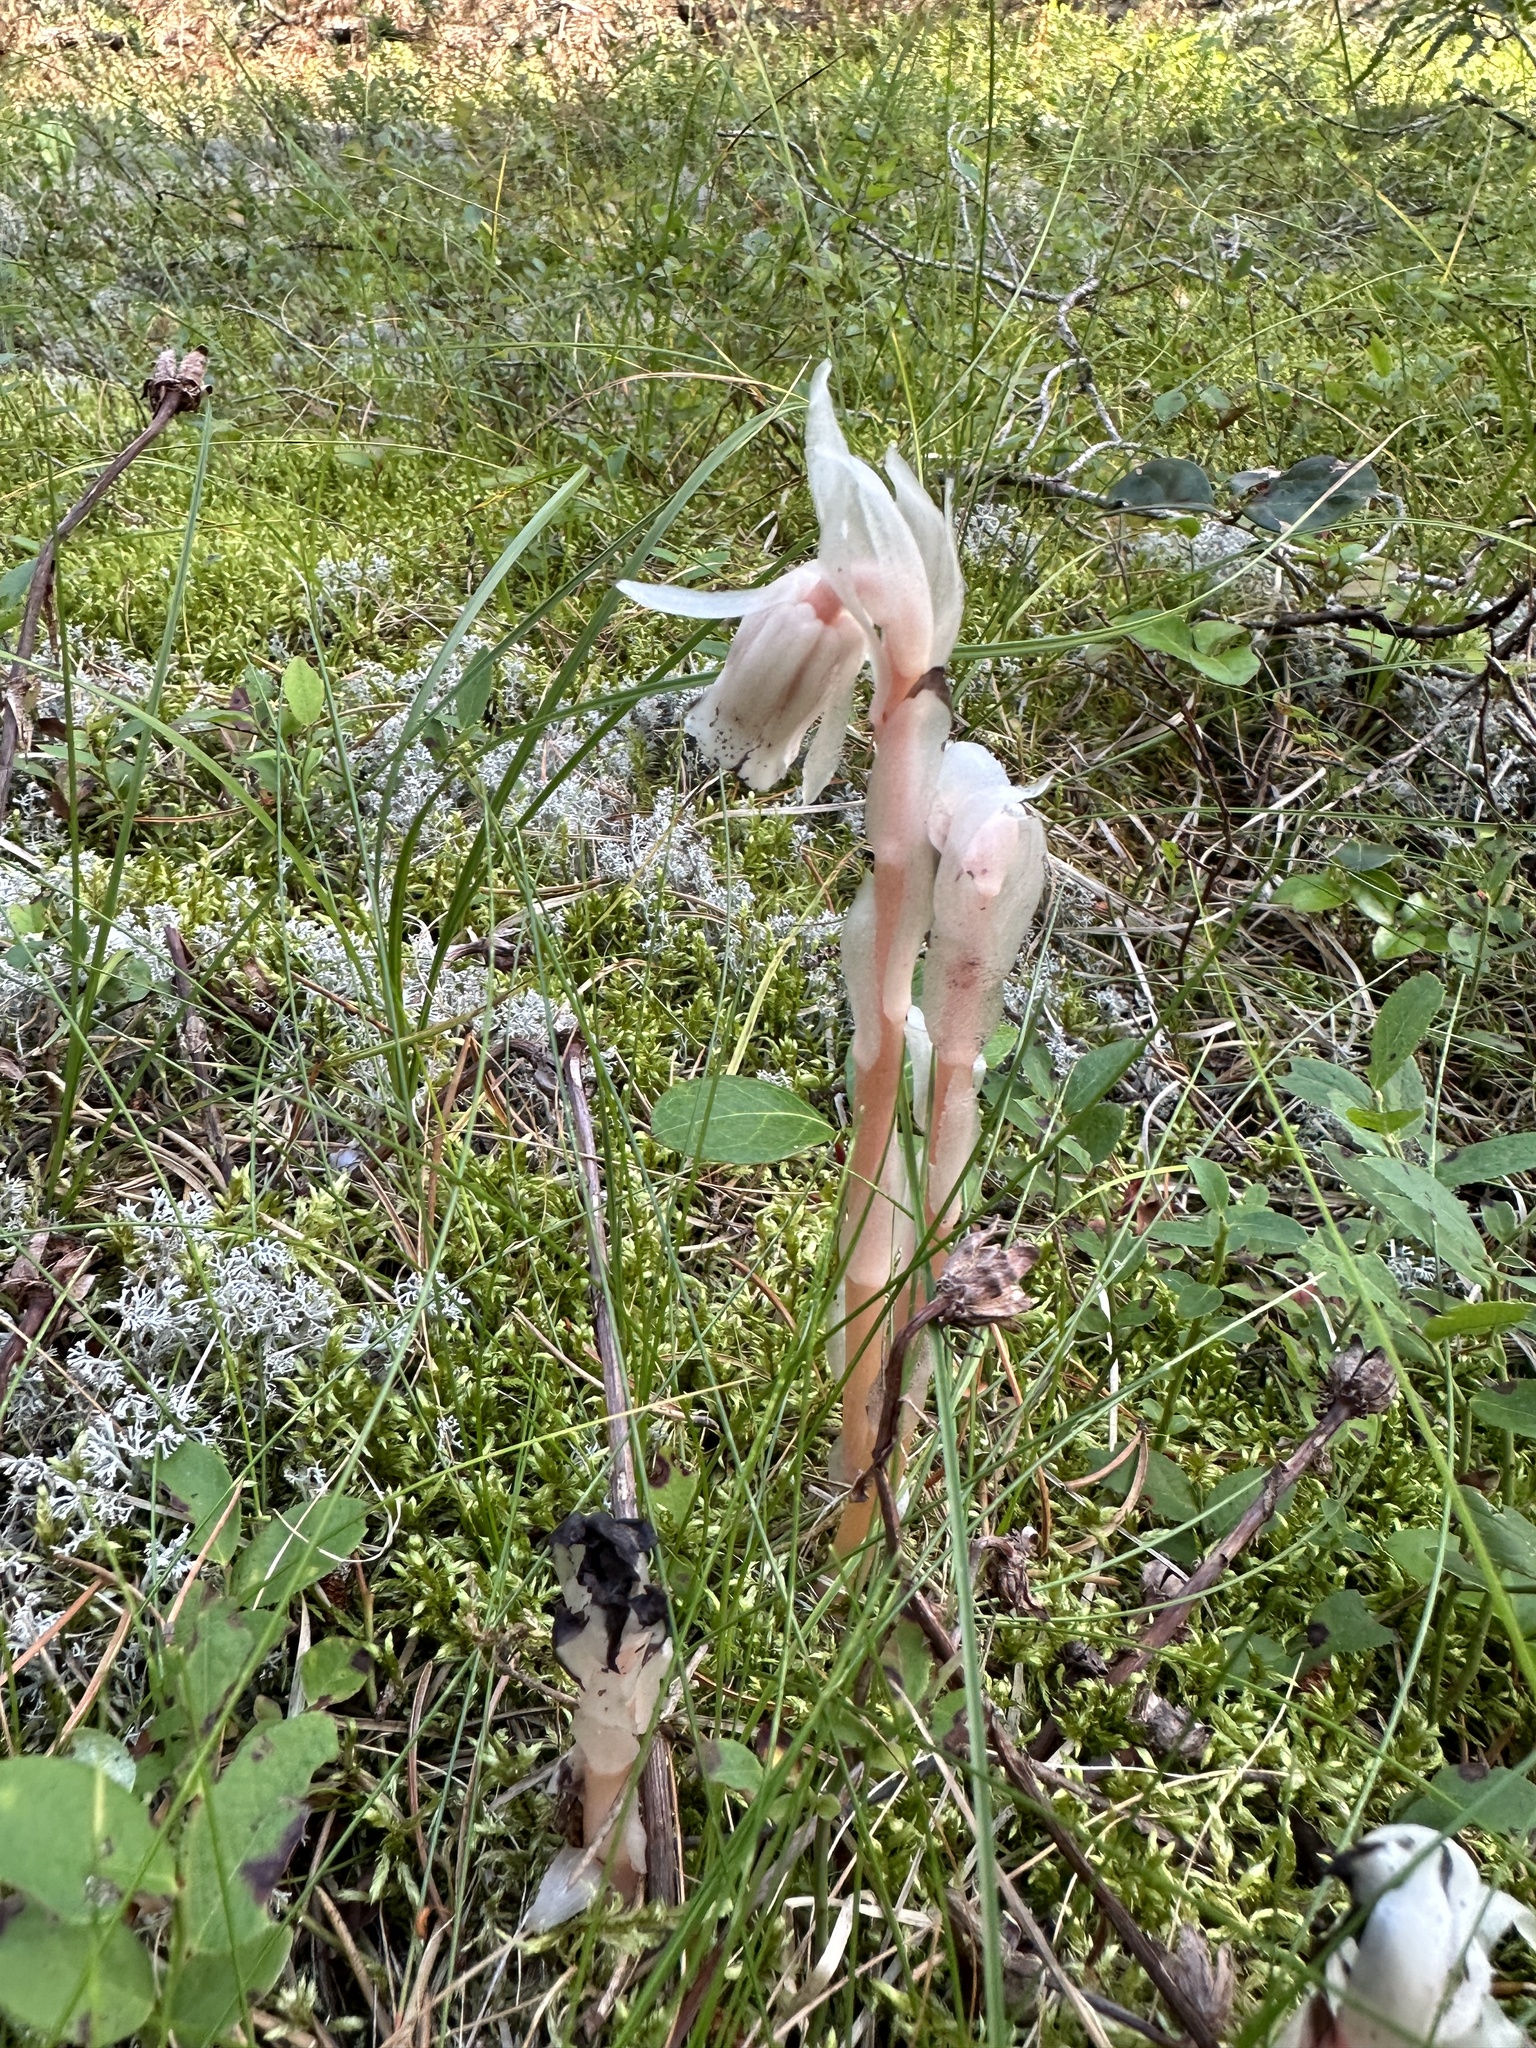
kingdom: Plantae
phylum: Tracheophyta
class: Magnoliopsida
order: Ericales
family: Ericaceae
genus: Monotropa
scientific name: Monotropa uniflora
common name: Convulsion root
